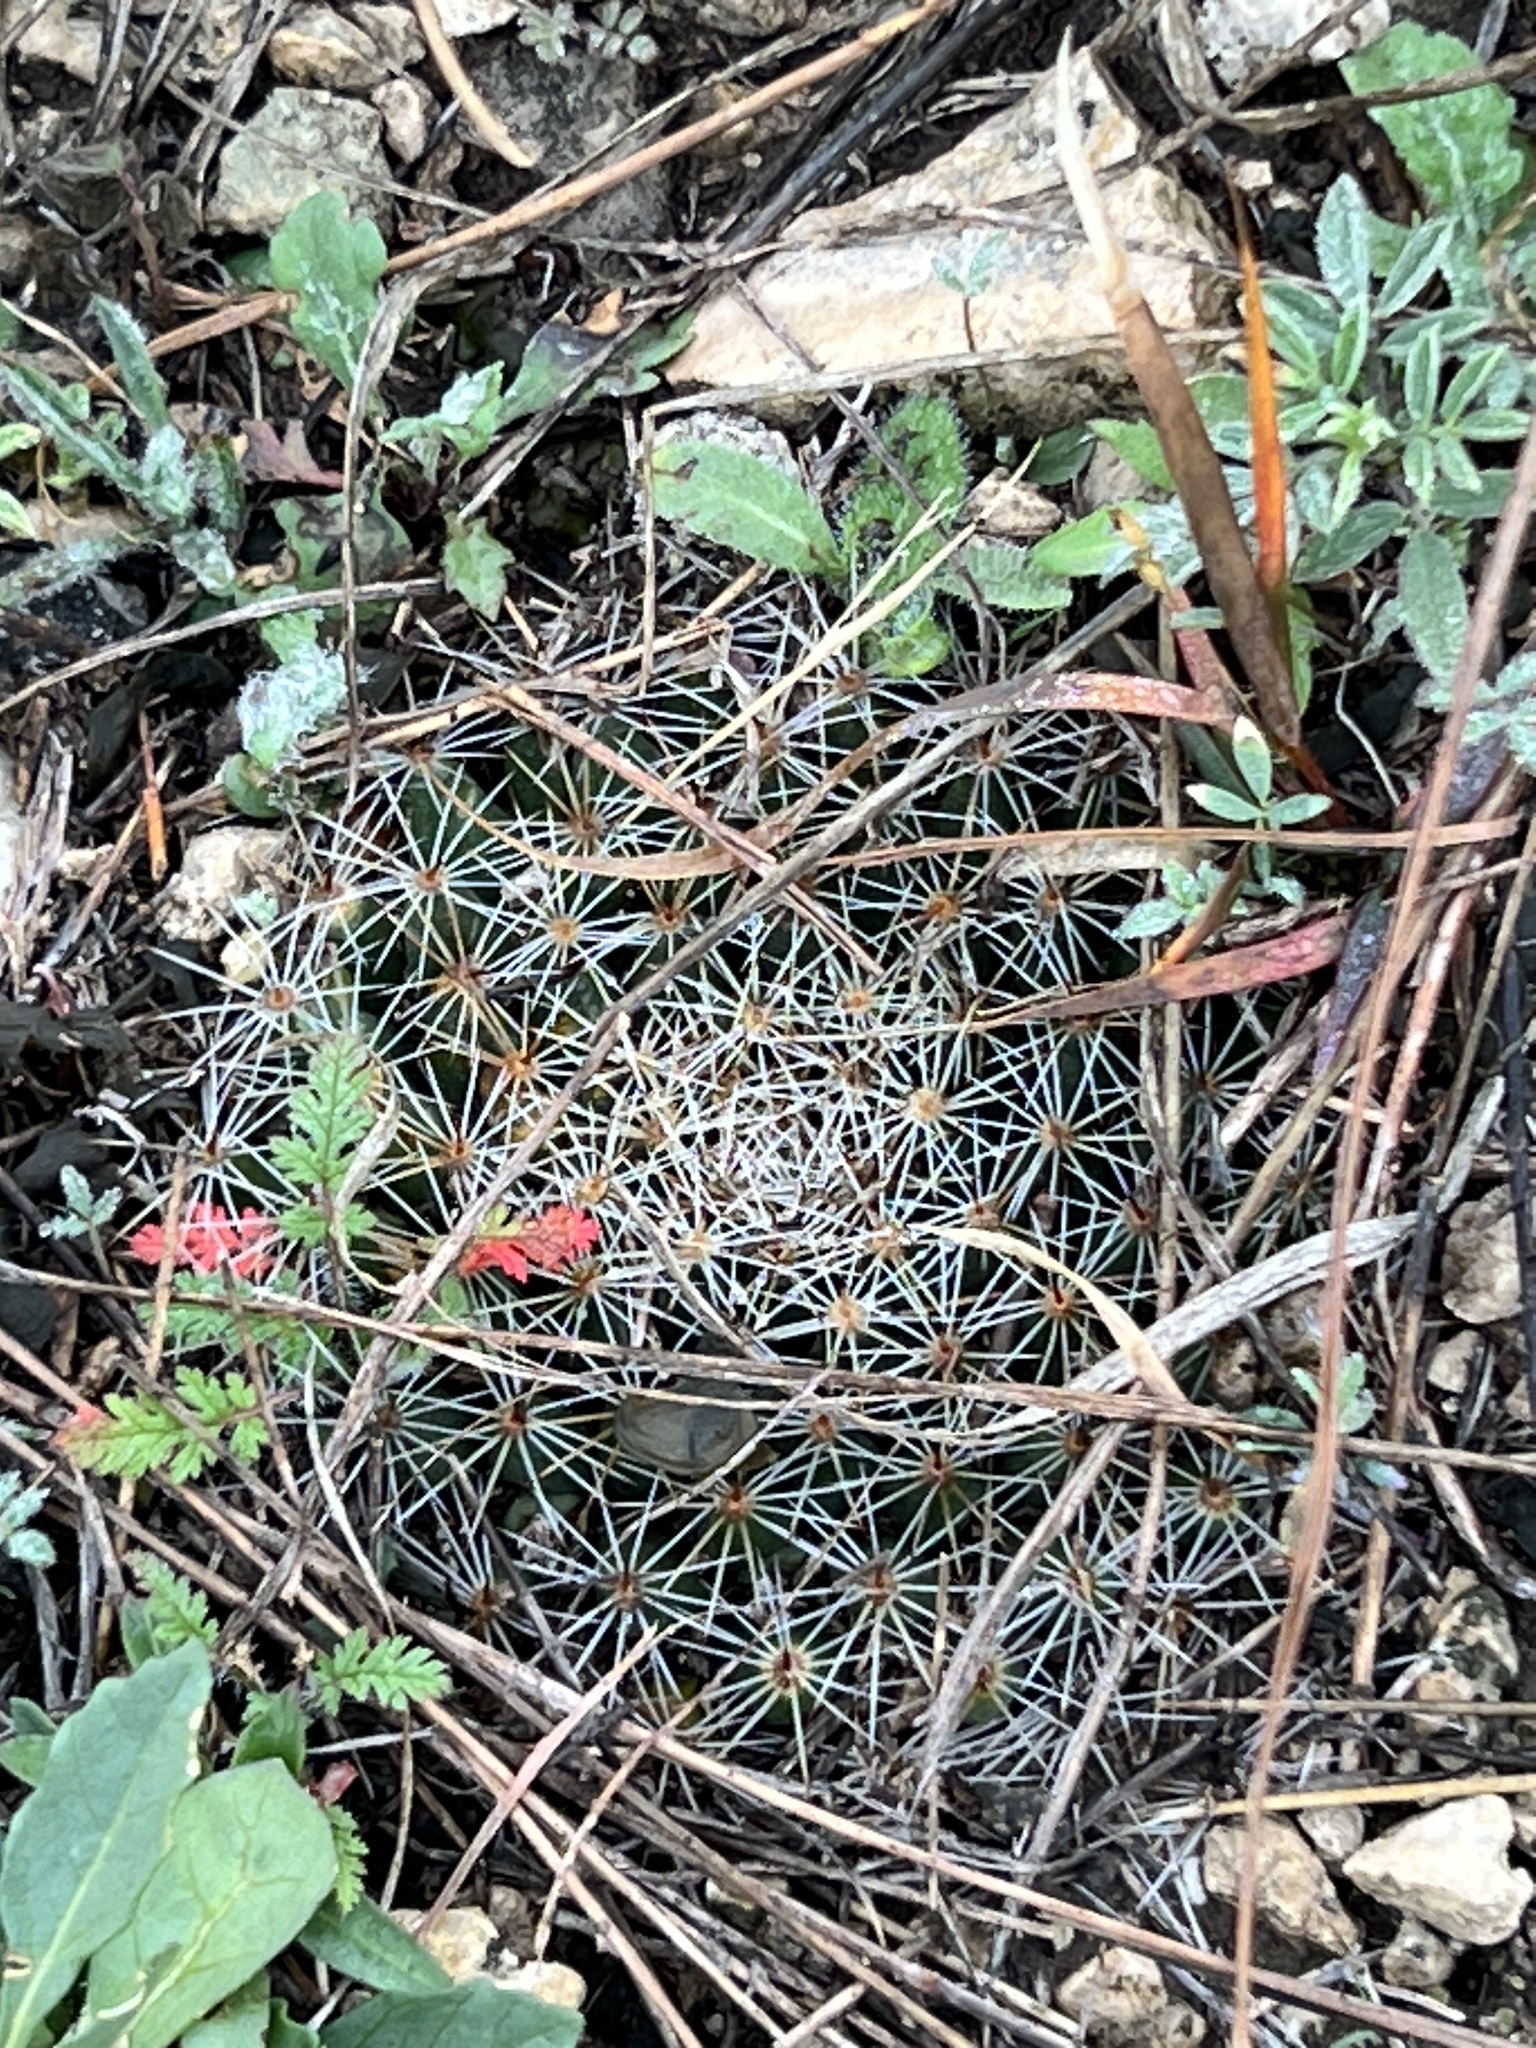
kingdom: Plantae
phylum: Tracheophyta
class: Magnoliopsida
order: Caryophyllales
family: Cactaceae
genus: Mammillaria
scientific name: Mammillaria heyderi
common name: Little nipple cactus
